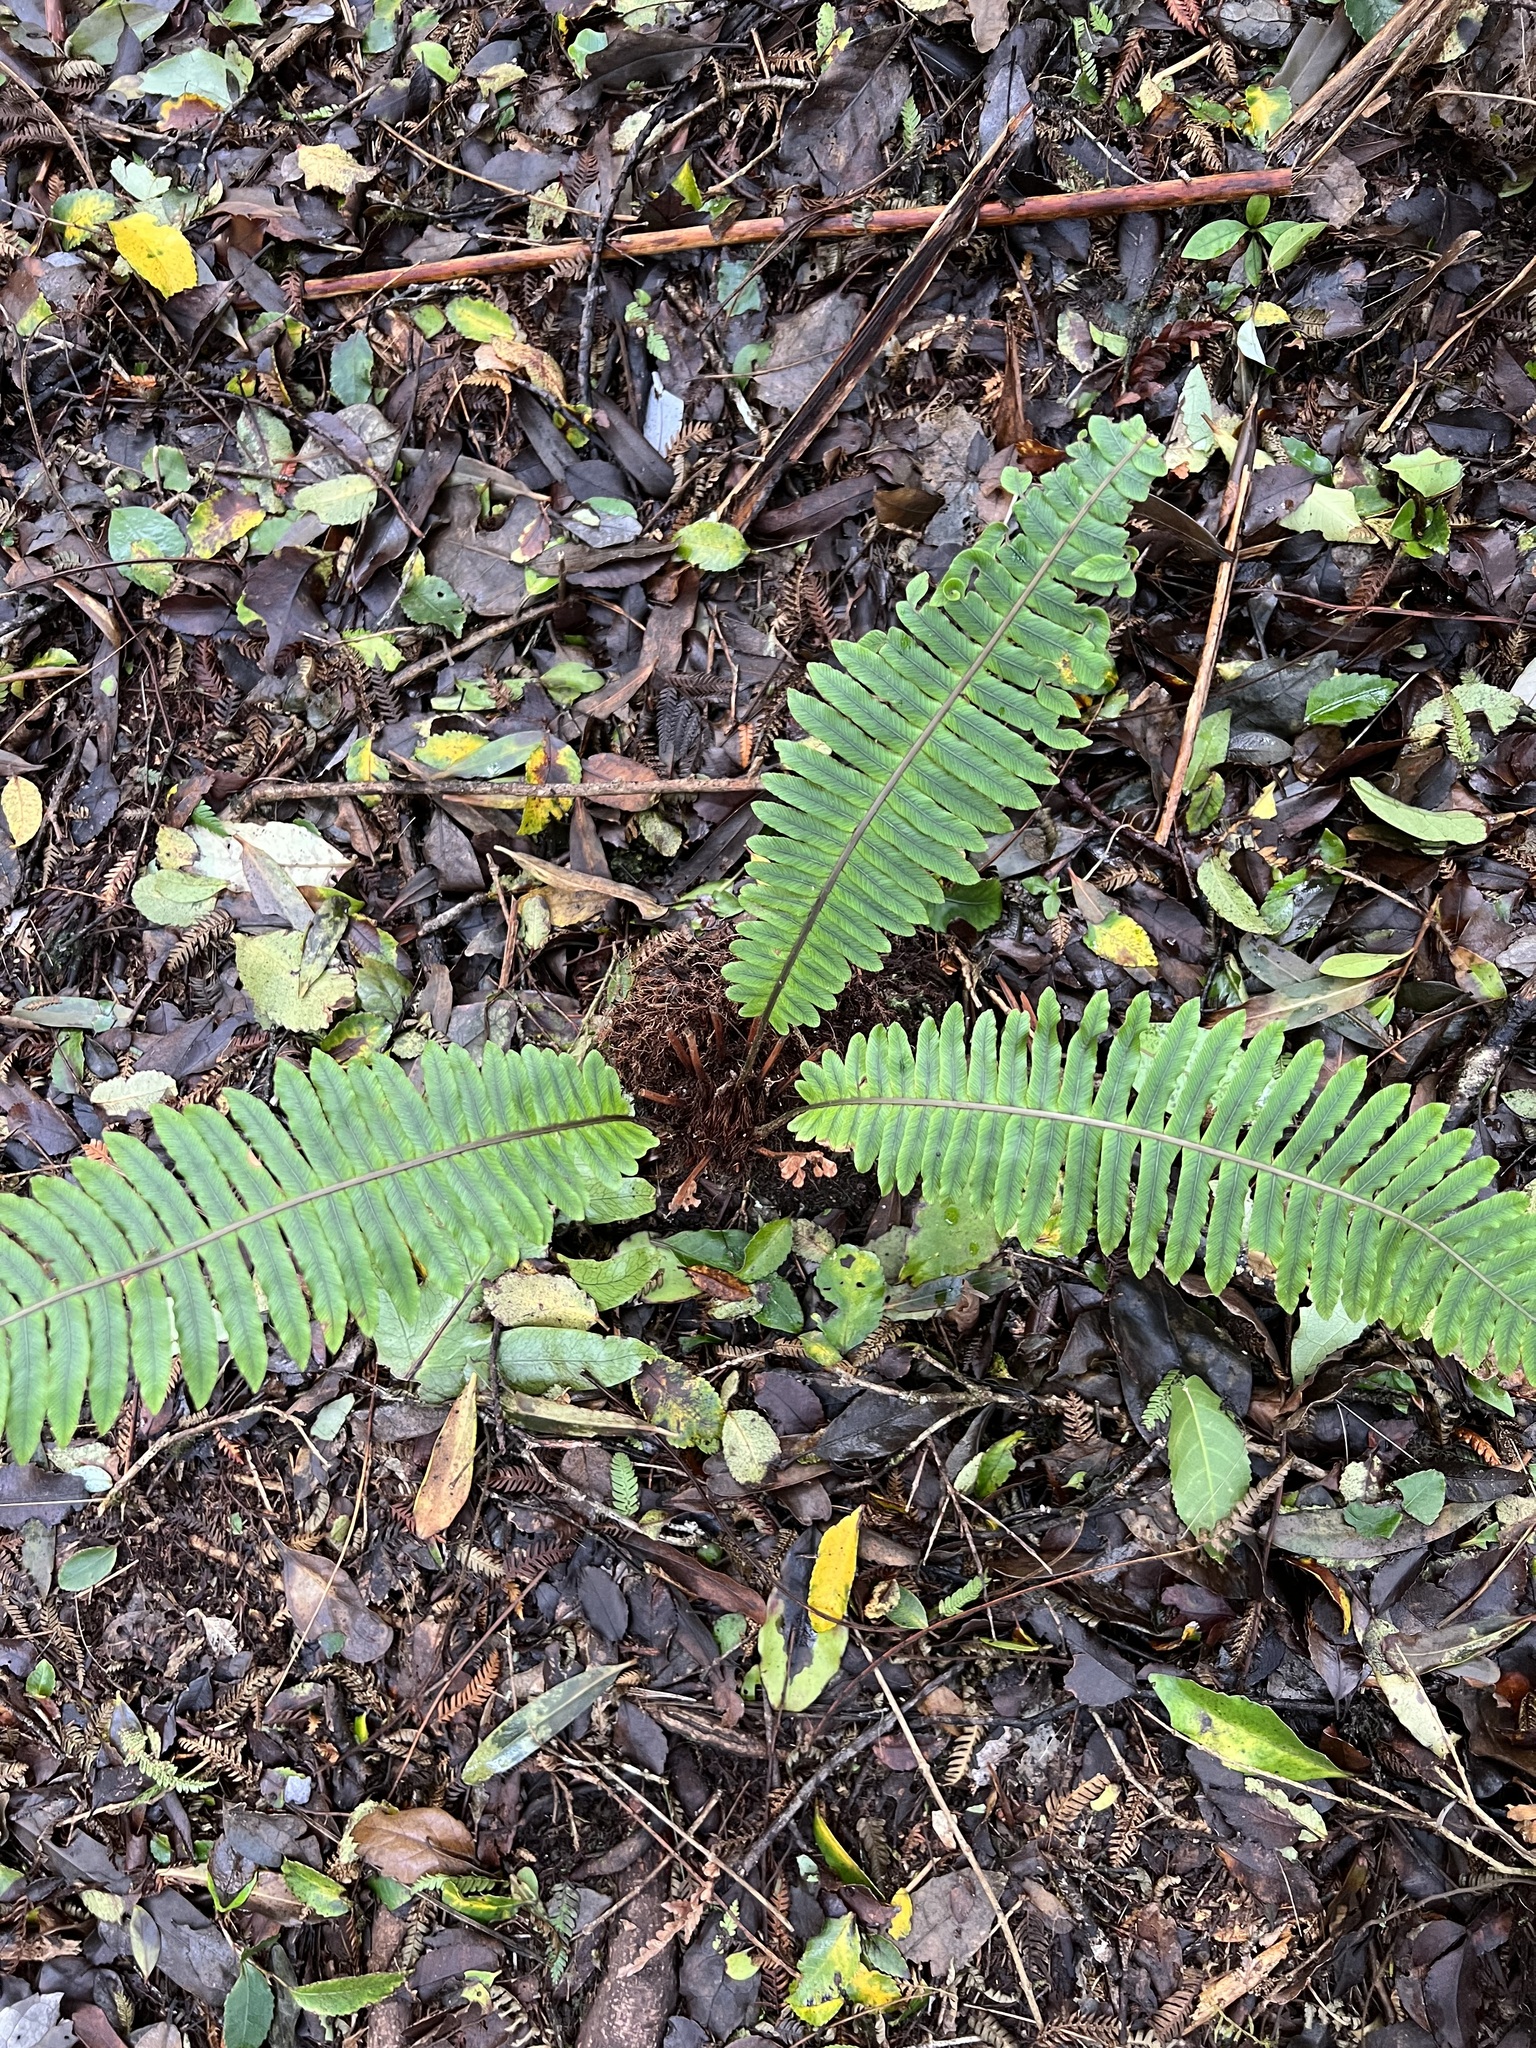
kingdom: Plantae
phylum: Tracheophyta
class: Polypodiopsida
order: Polypodiales
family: Blechnaceae
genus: Lomaria
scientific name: Lomaria discolor
